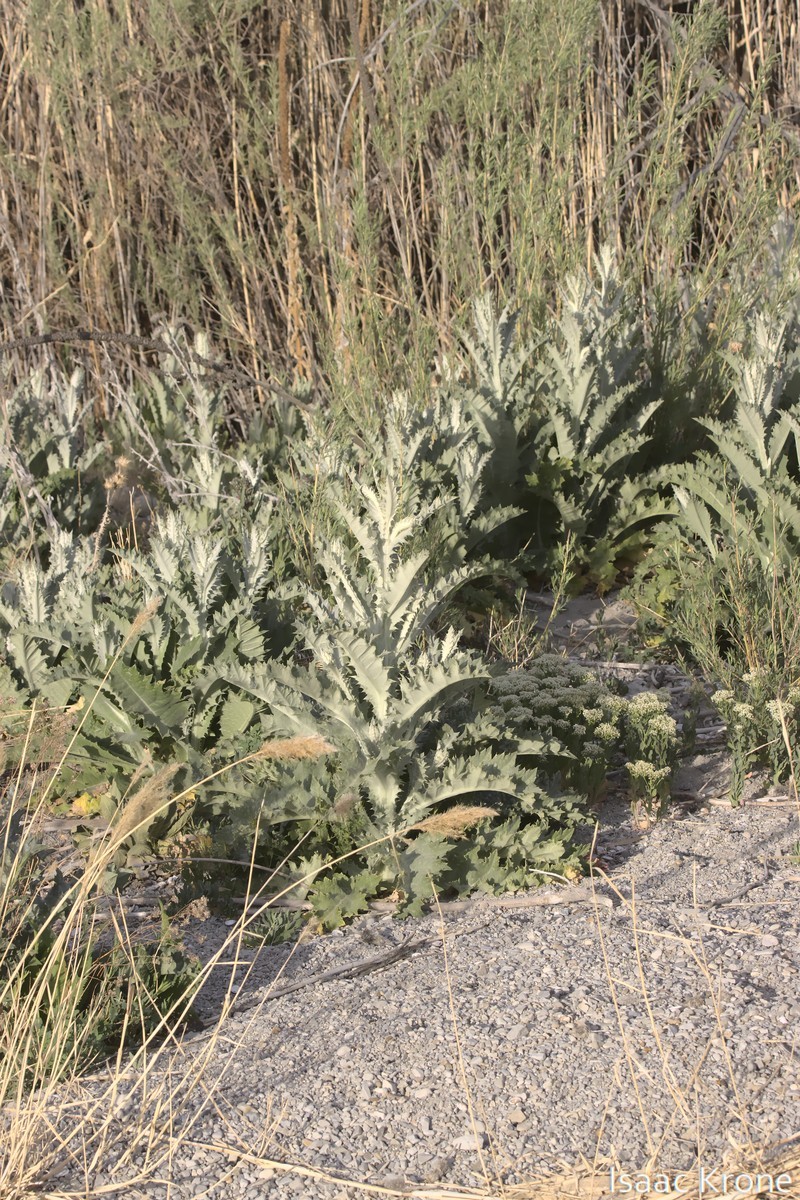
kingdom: Plantae
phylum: Tracheophyta
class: Magnoliopsida
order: Asterales
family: Asteraceae
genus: Onopordum
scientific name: Onopordum acanthium
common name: Scotch thistle
